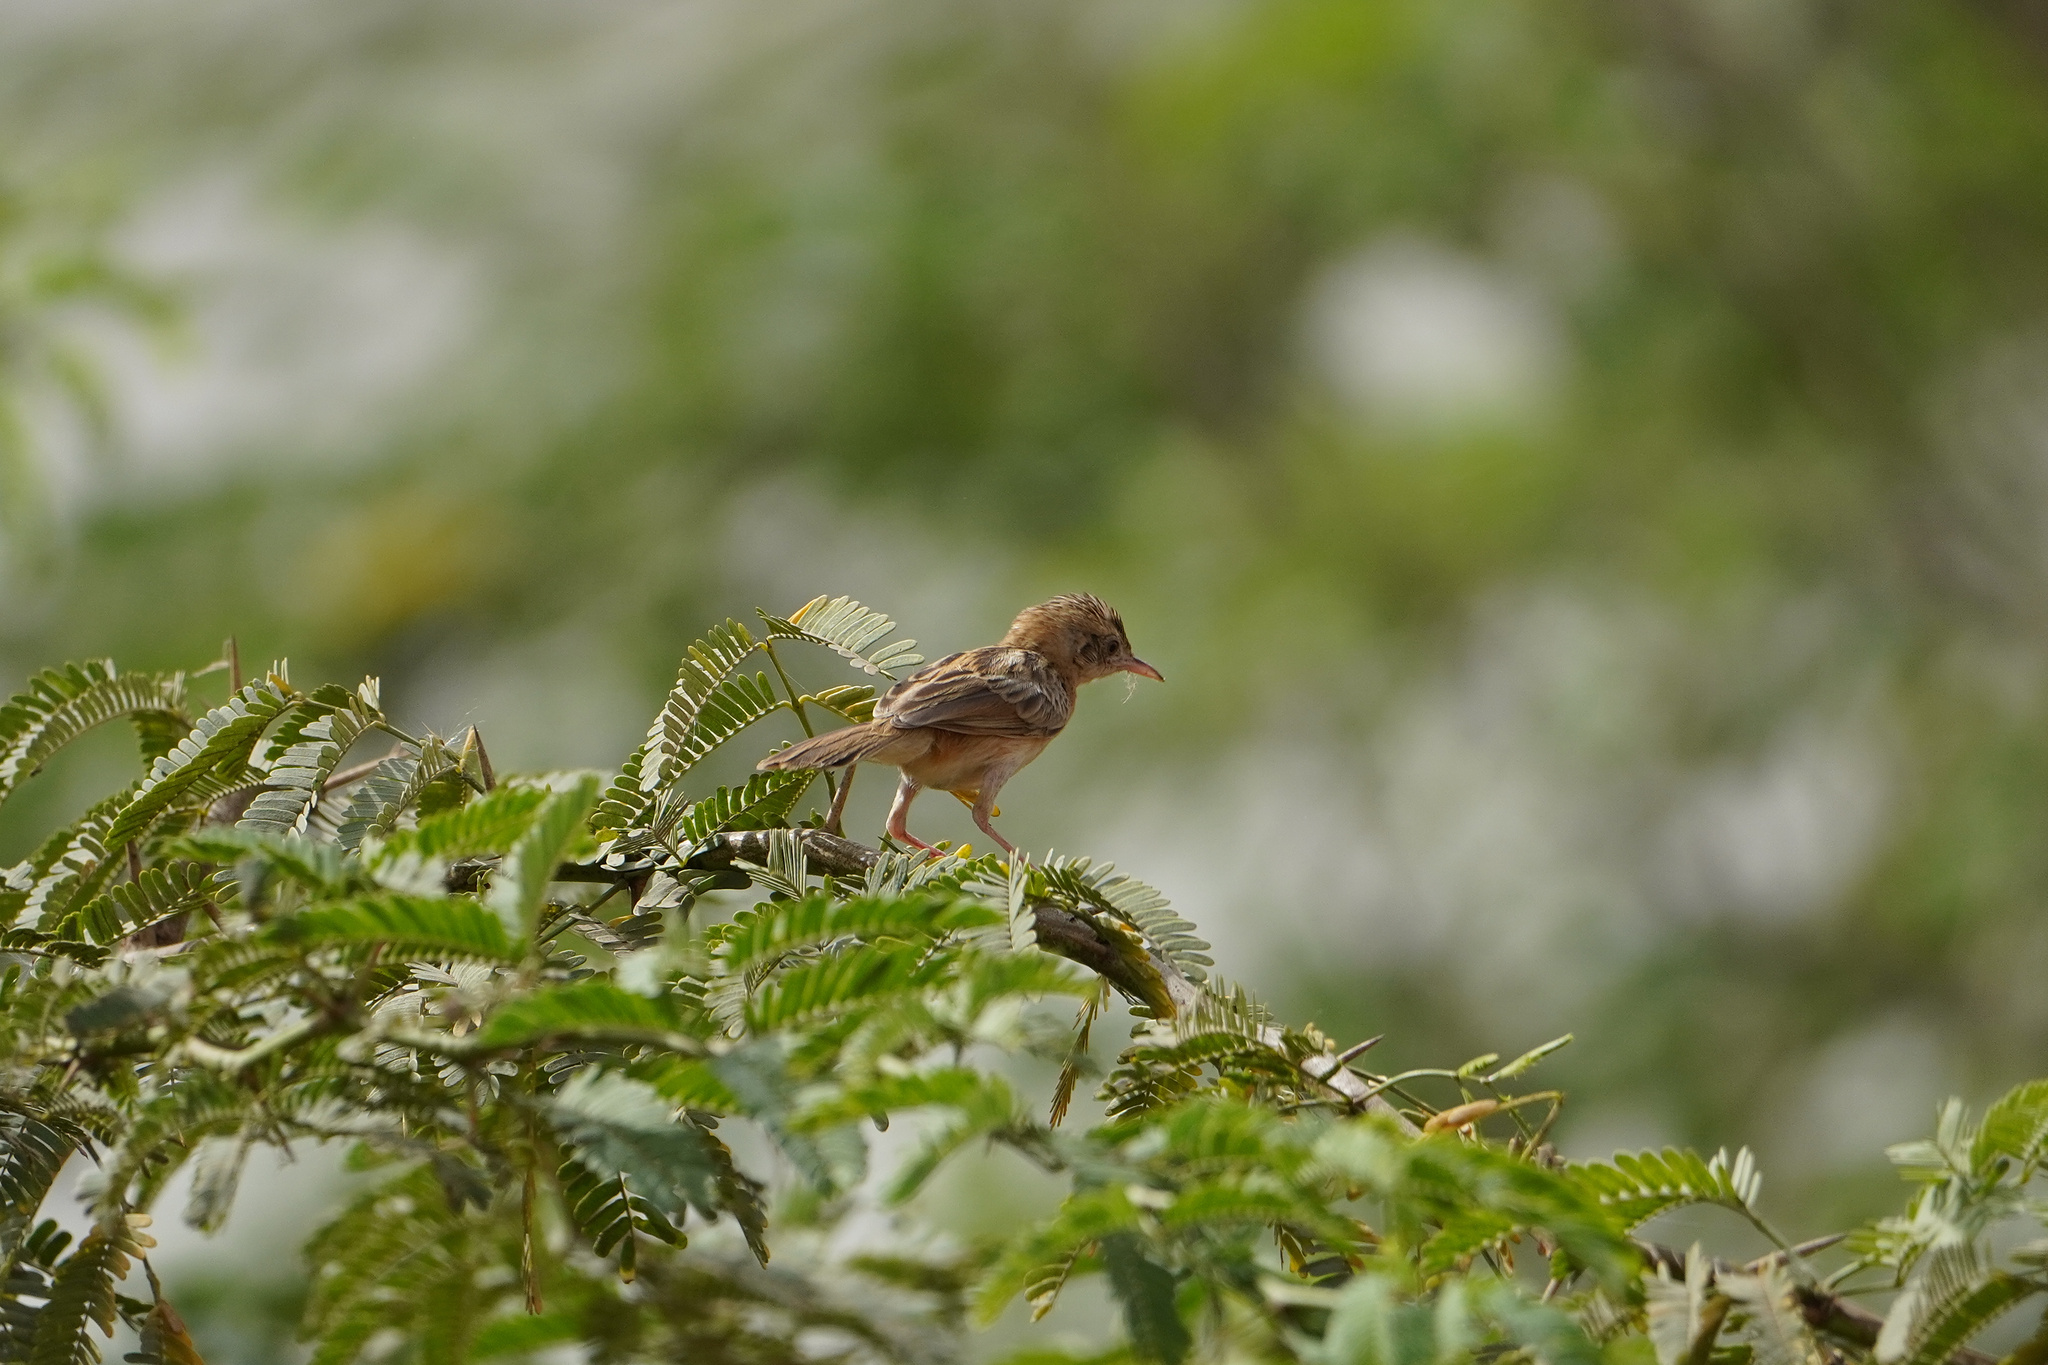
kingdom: Animalia
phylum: Chordata
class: Aves
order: Passeriformes
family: Cisticolidae
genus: Cisticola
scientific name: Cisticola juncidis
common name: Zitting cisticola
